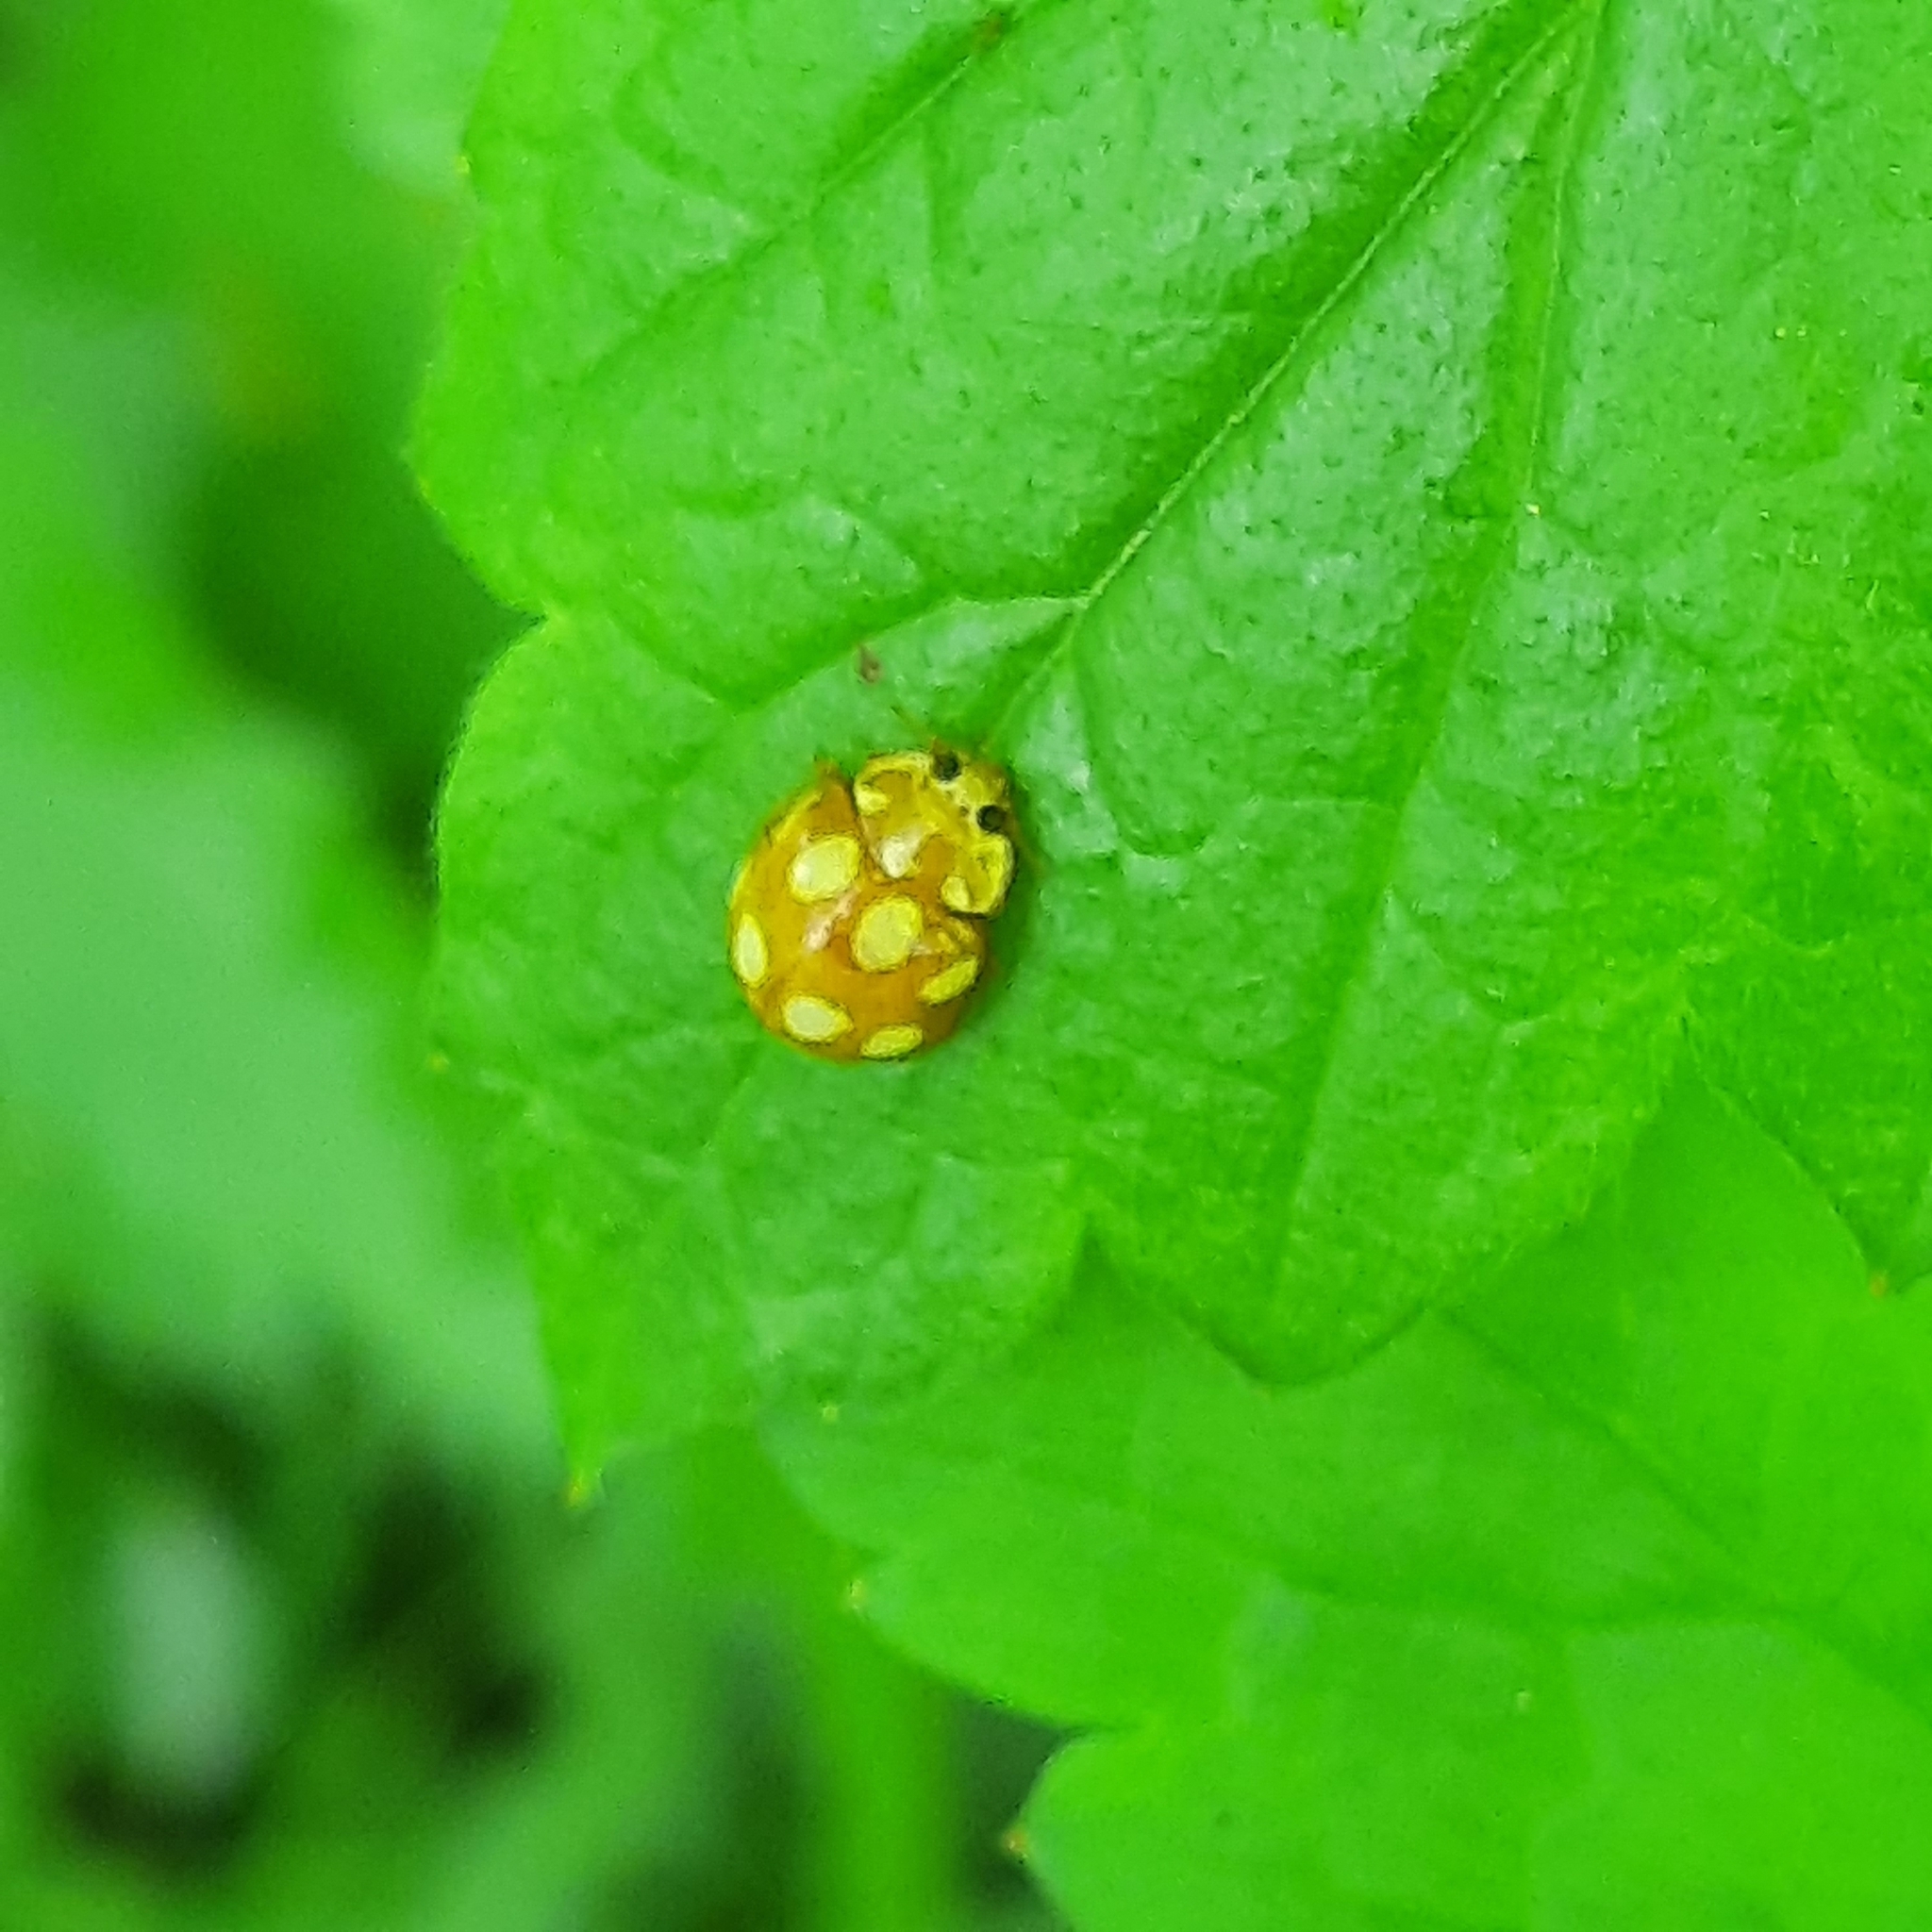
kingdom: Animalia
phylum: Arthropoda
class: Insecta
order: Coleoptera
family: Coccinellidae
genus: Calvia
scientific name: Calvia decemguttata
